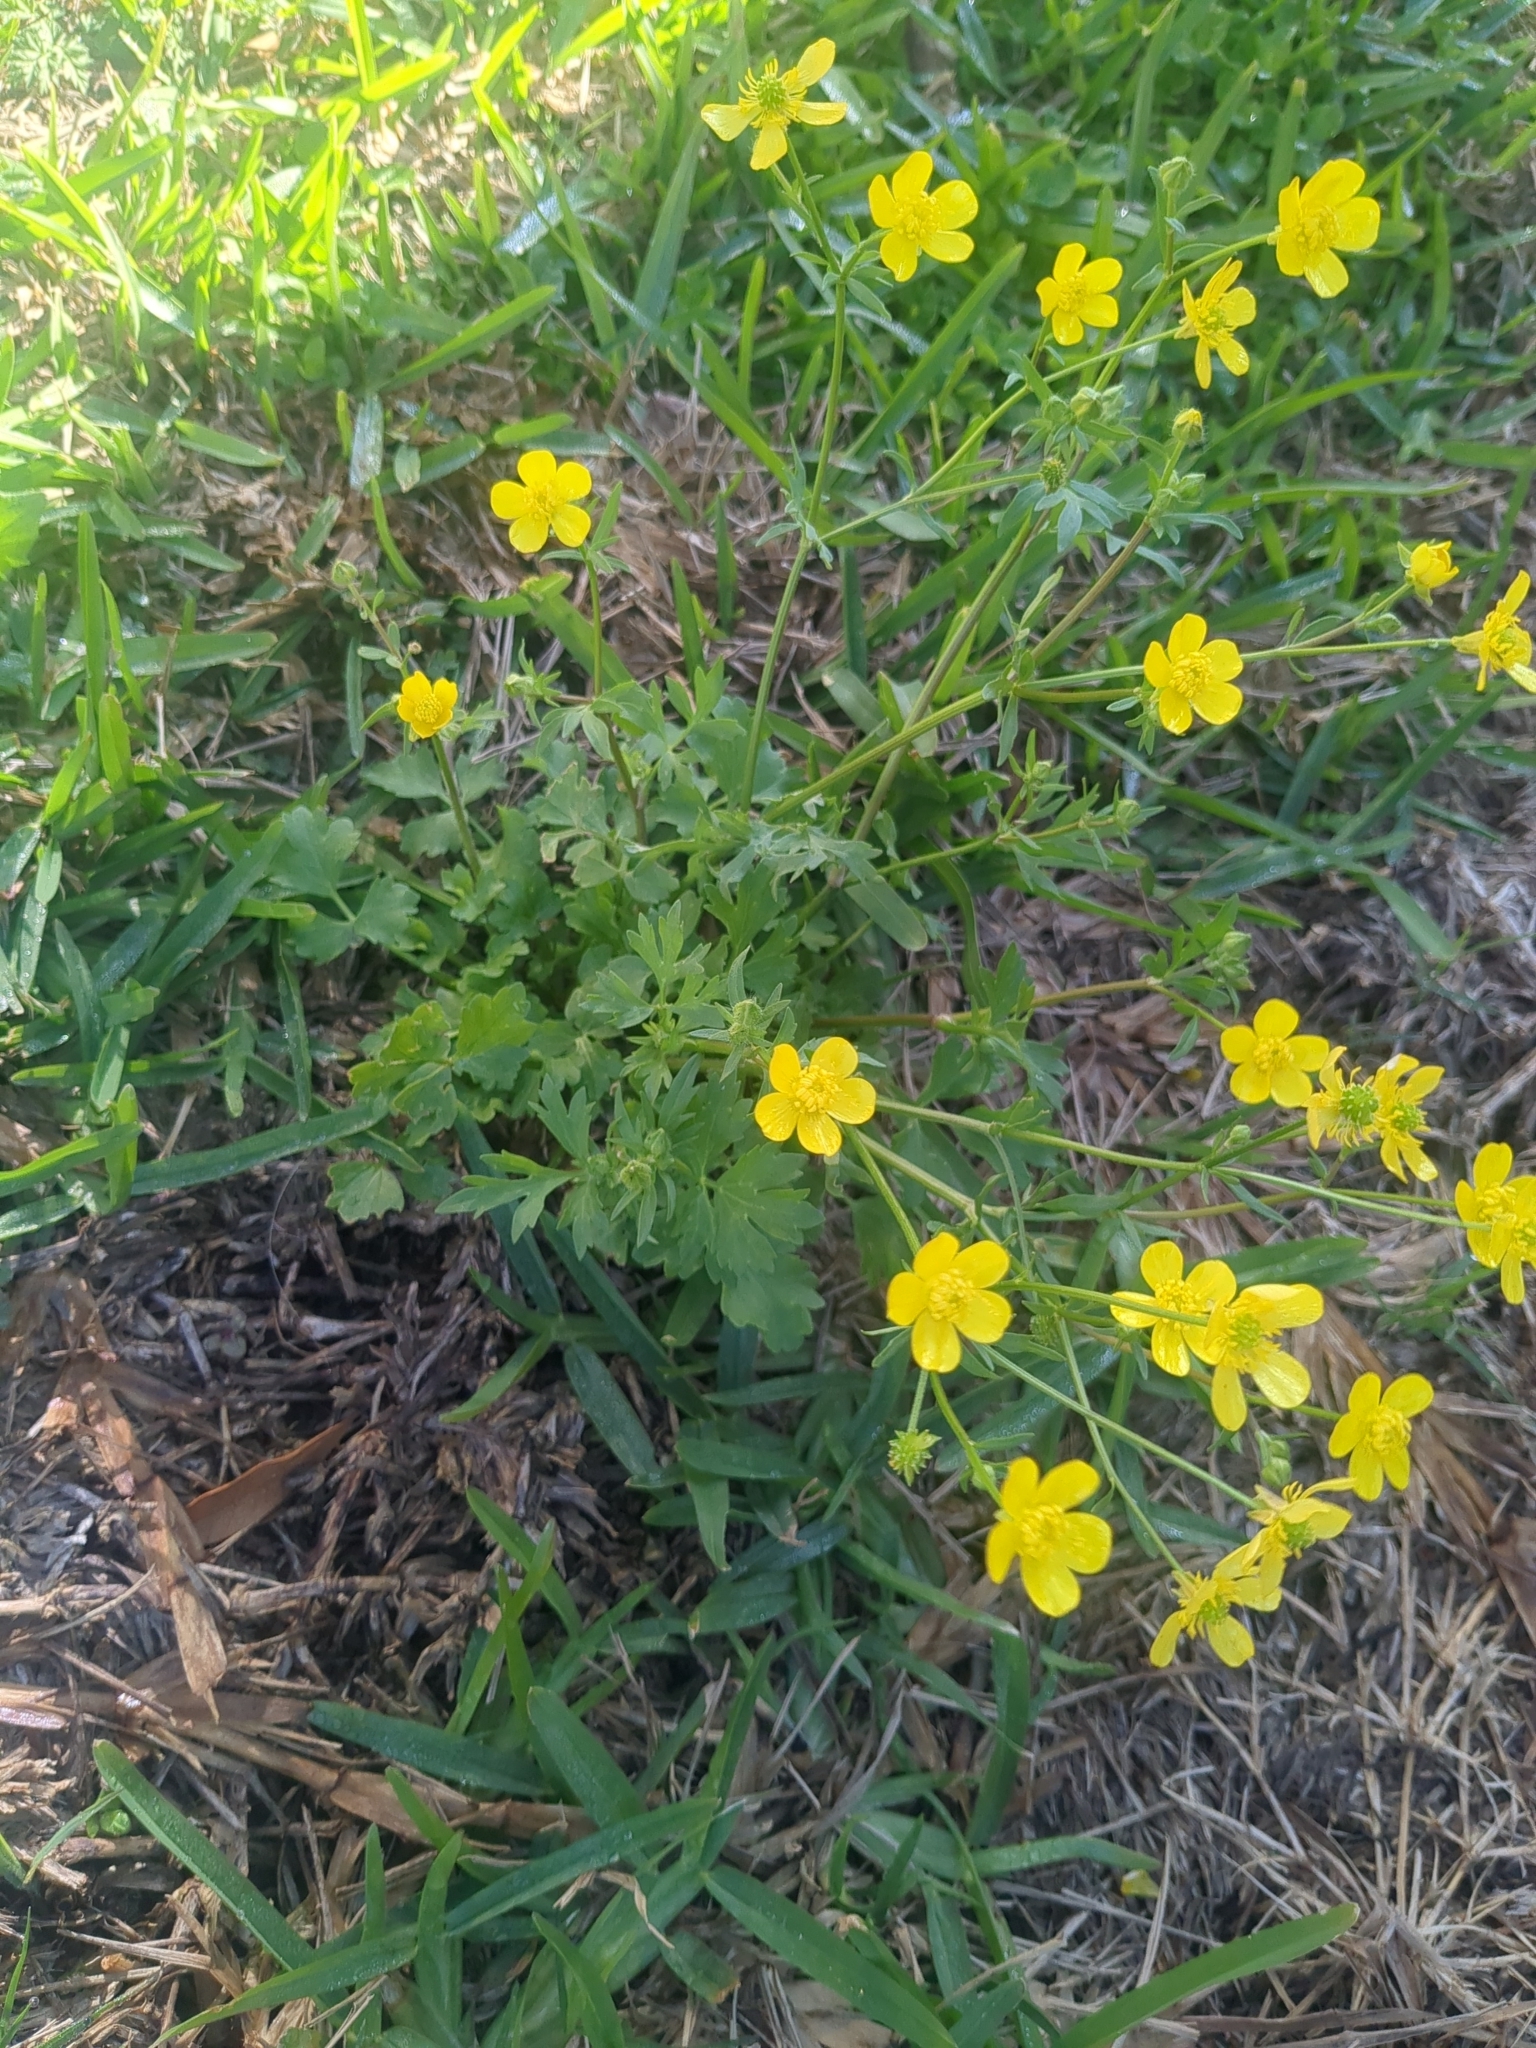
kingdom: Plantae
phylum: Tracheophyta
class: Magnoliopsida
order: Ranunculales
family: Ranunculaceae
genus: Ranunculus
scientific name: Ranunculus muricatus
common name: Rough-fruited buttercup
